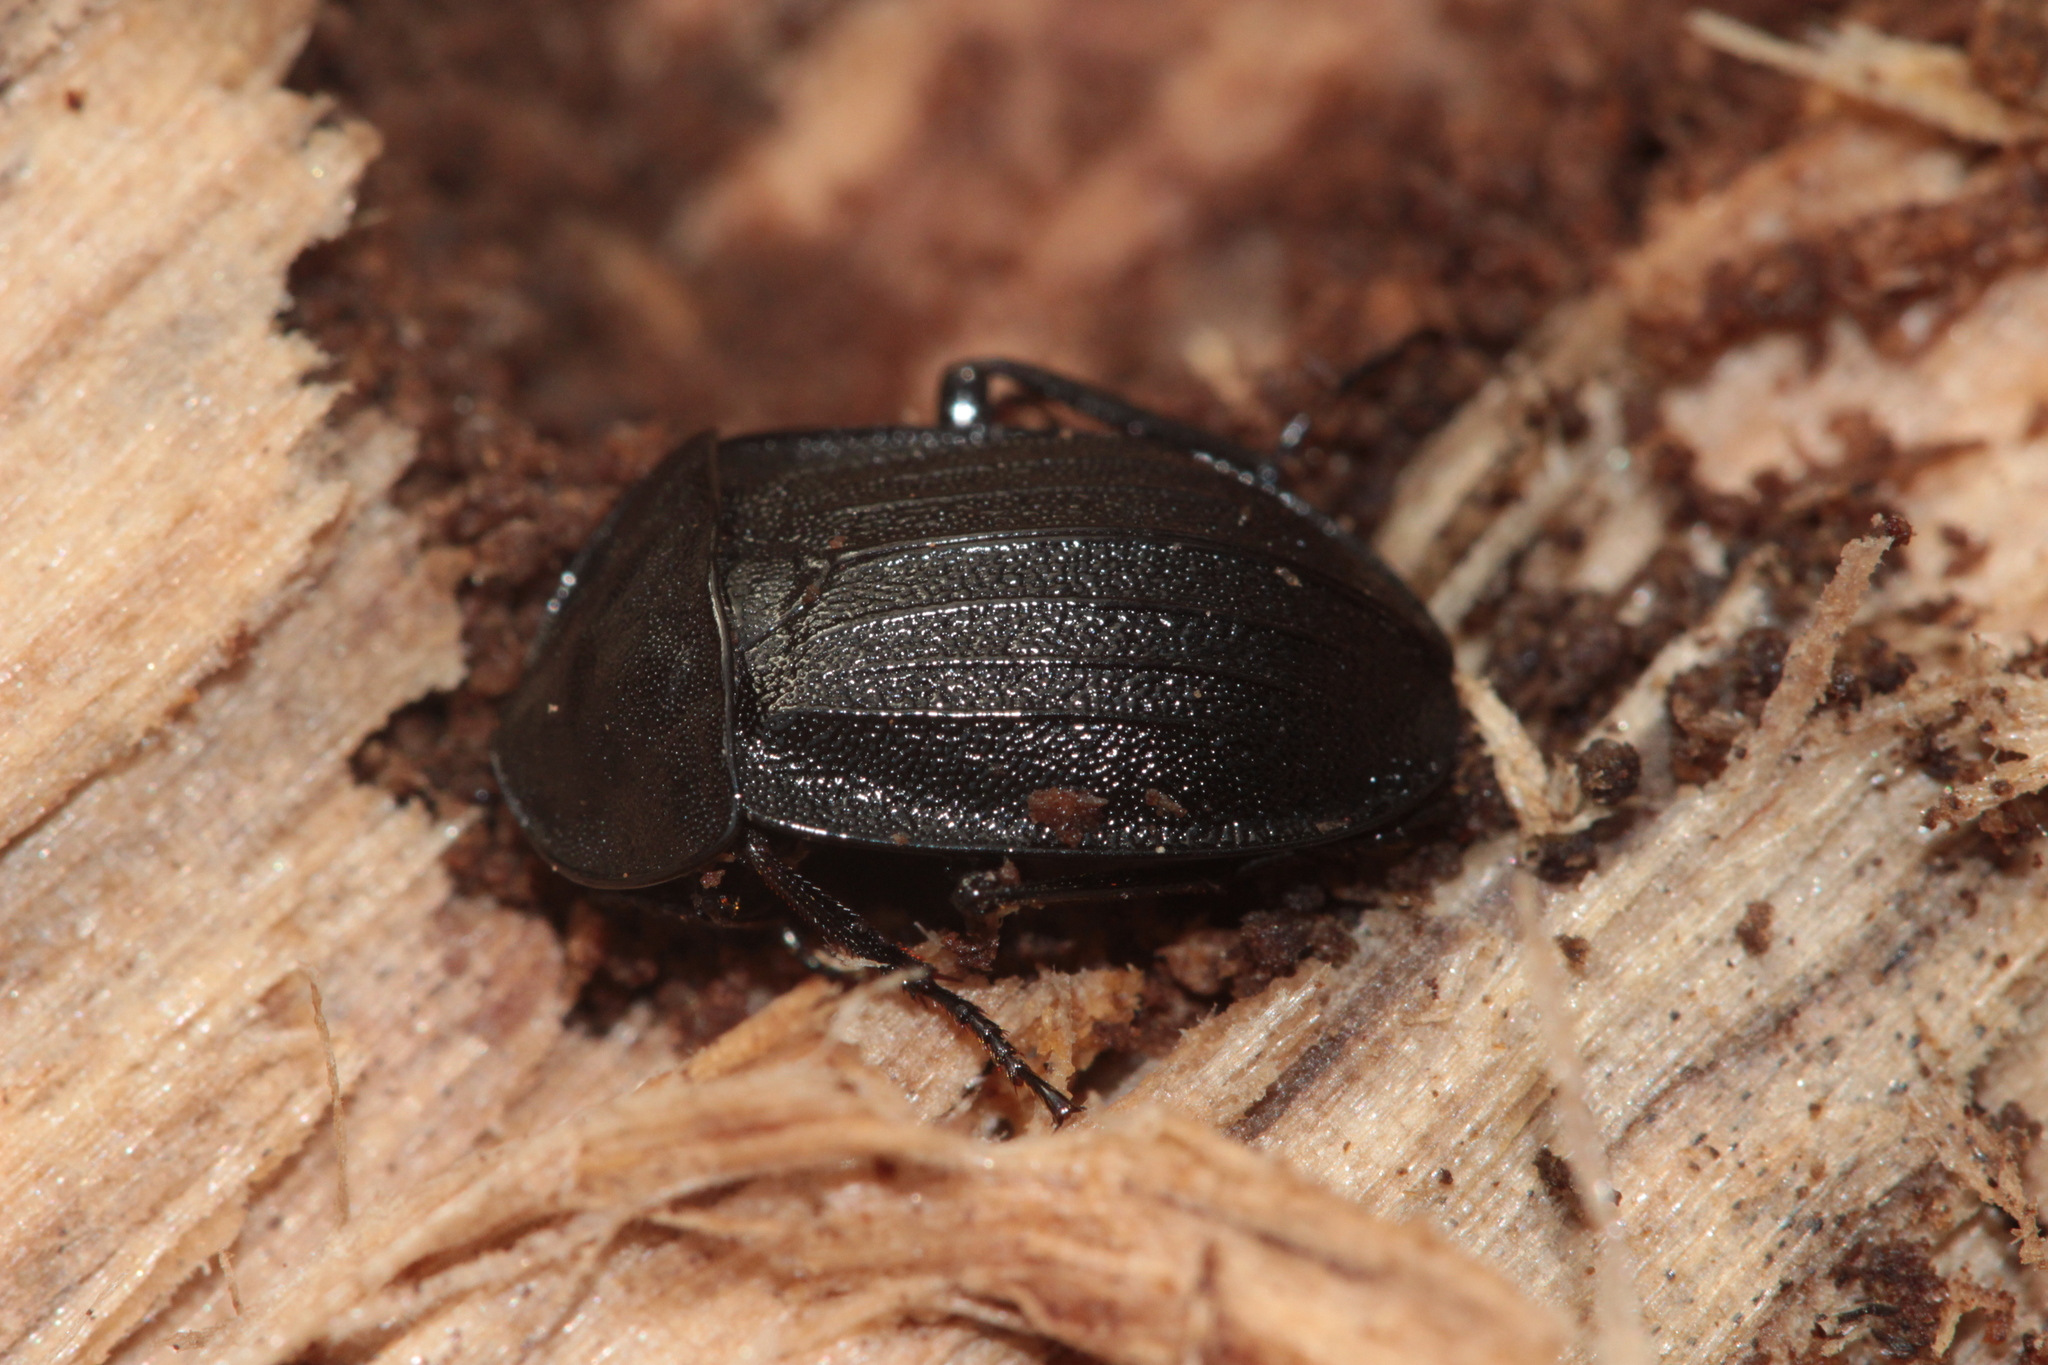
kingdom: Animalia
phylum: Arthropoda
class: Insecta
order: Coleoptera
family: Staphylinidae
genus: Silpha
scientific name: Silpha atrata
